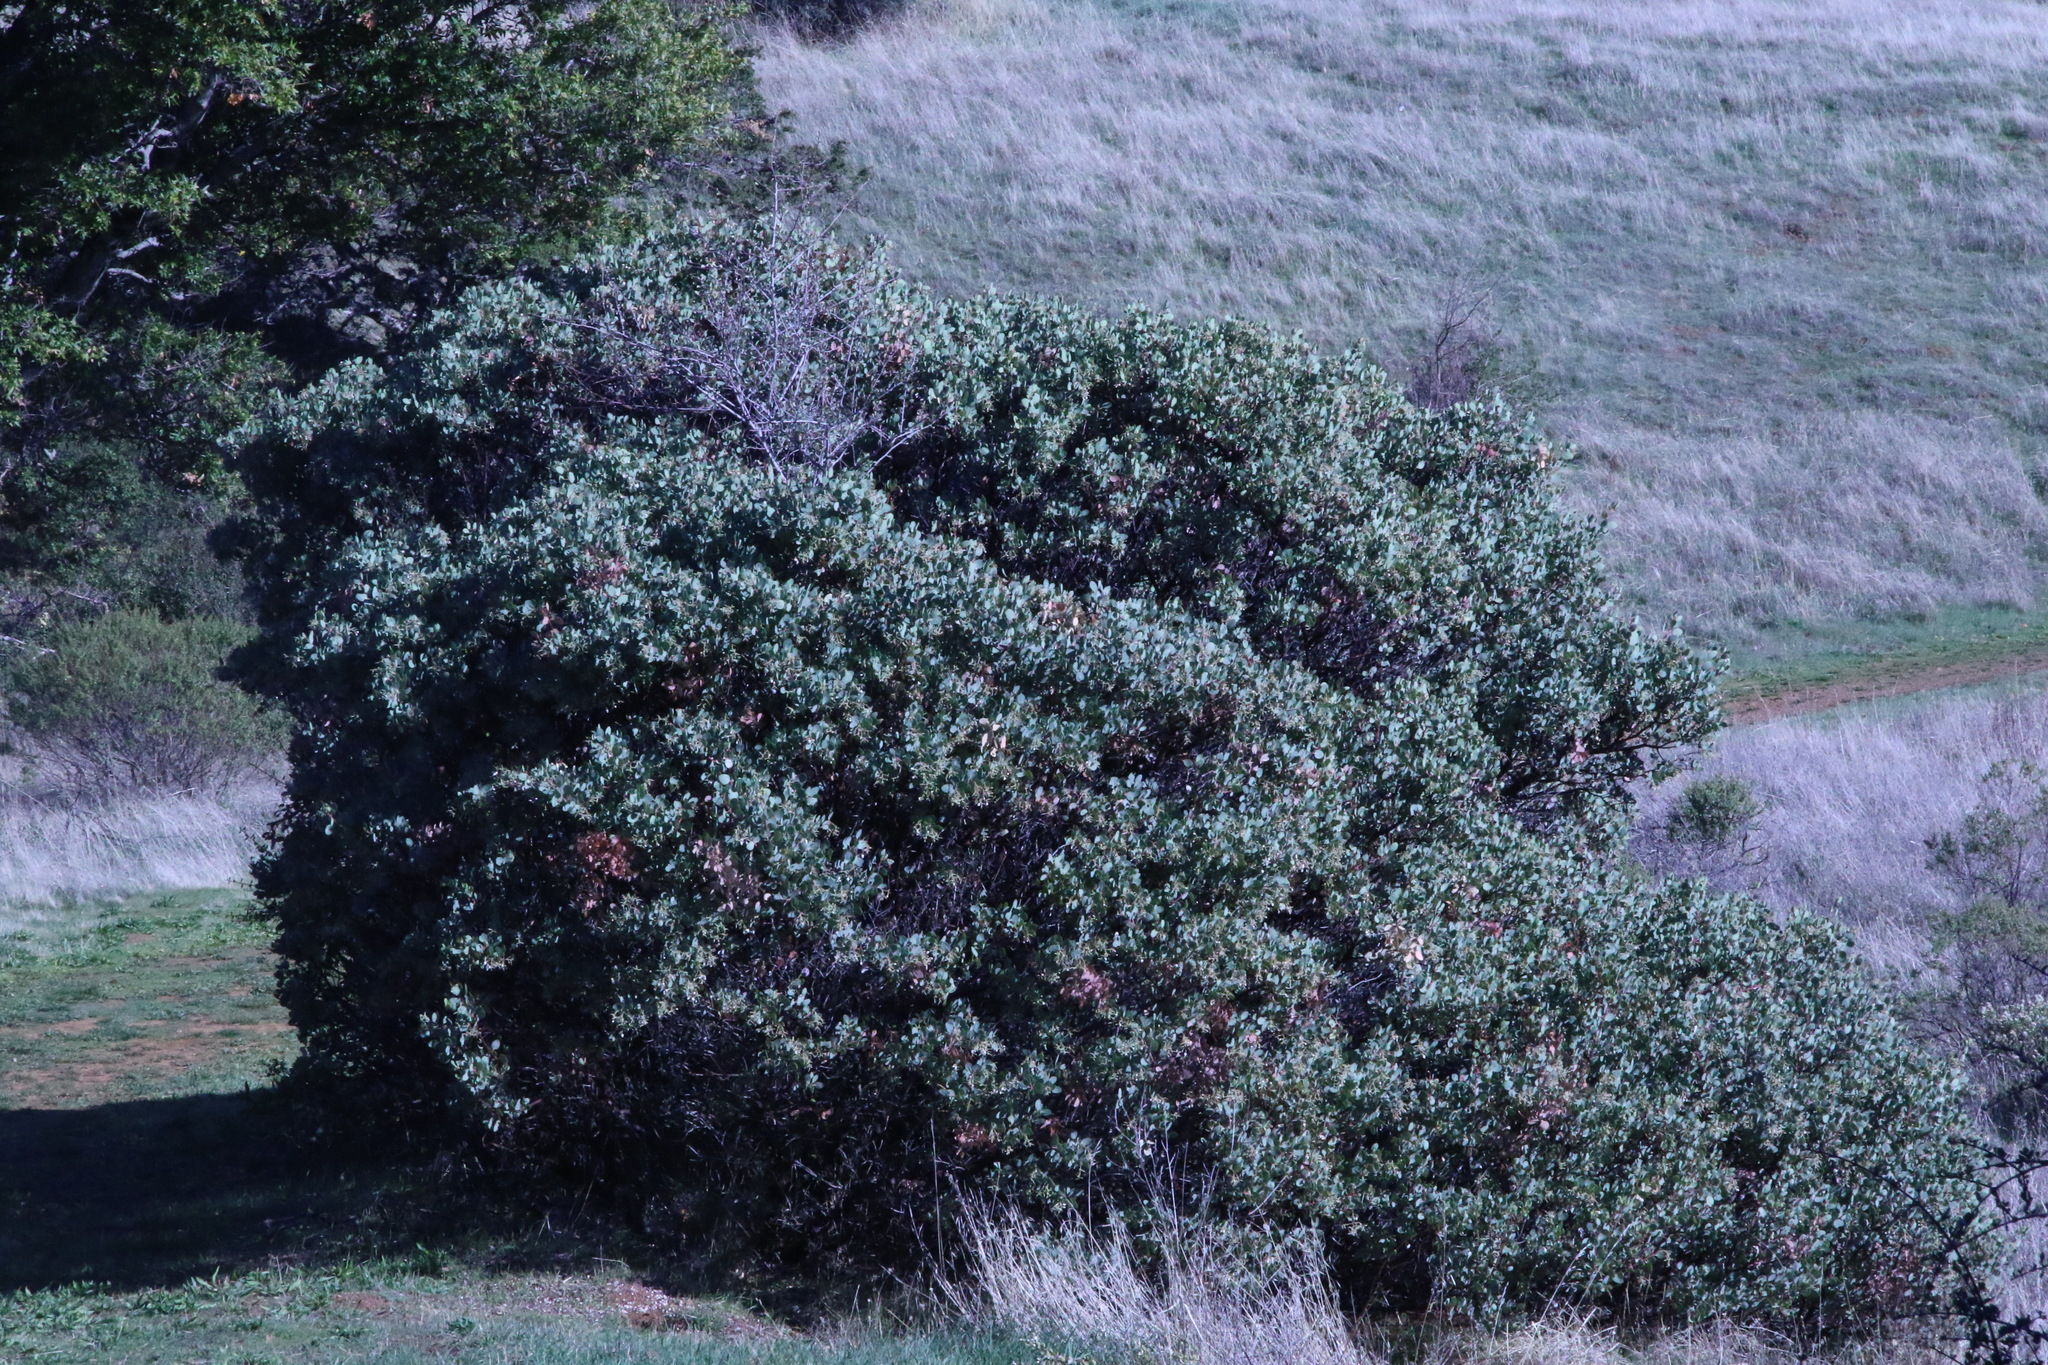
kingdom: Plantae
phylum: Tracheophyta
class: Magnoliopsida
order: Ericales
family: Ericaceae
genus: Arctostaphylos
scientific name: Arctostaphylos glauca
